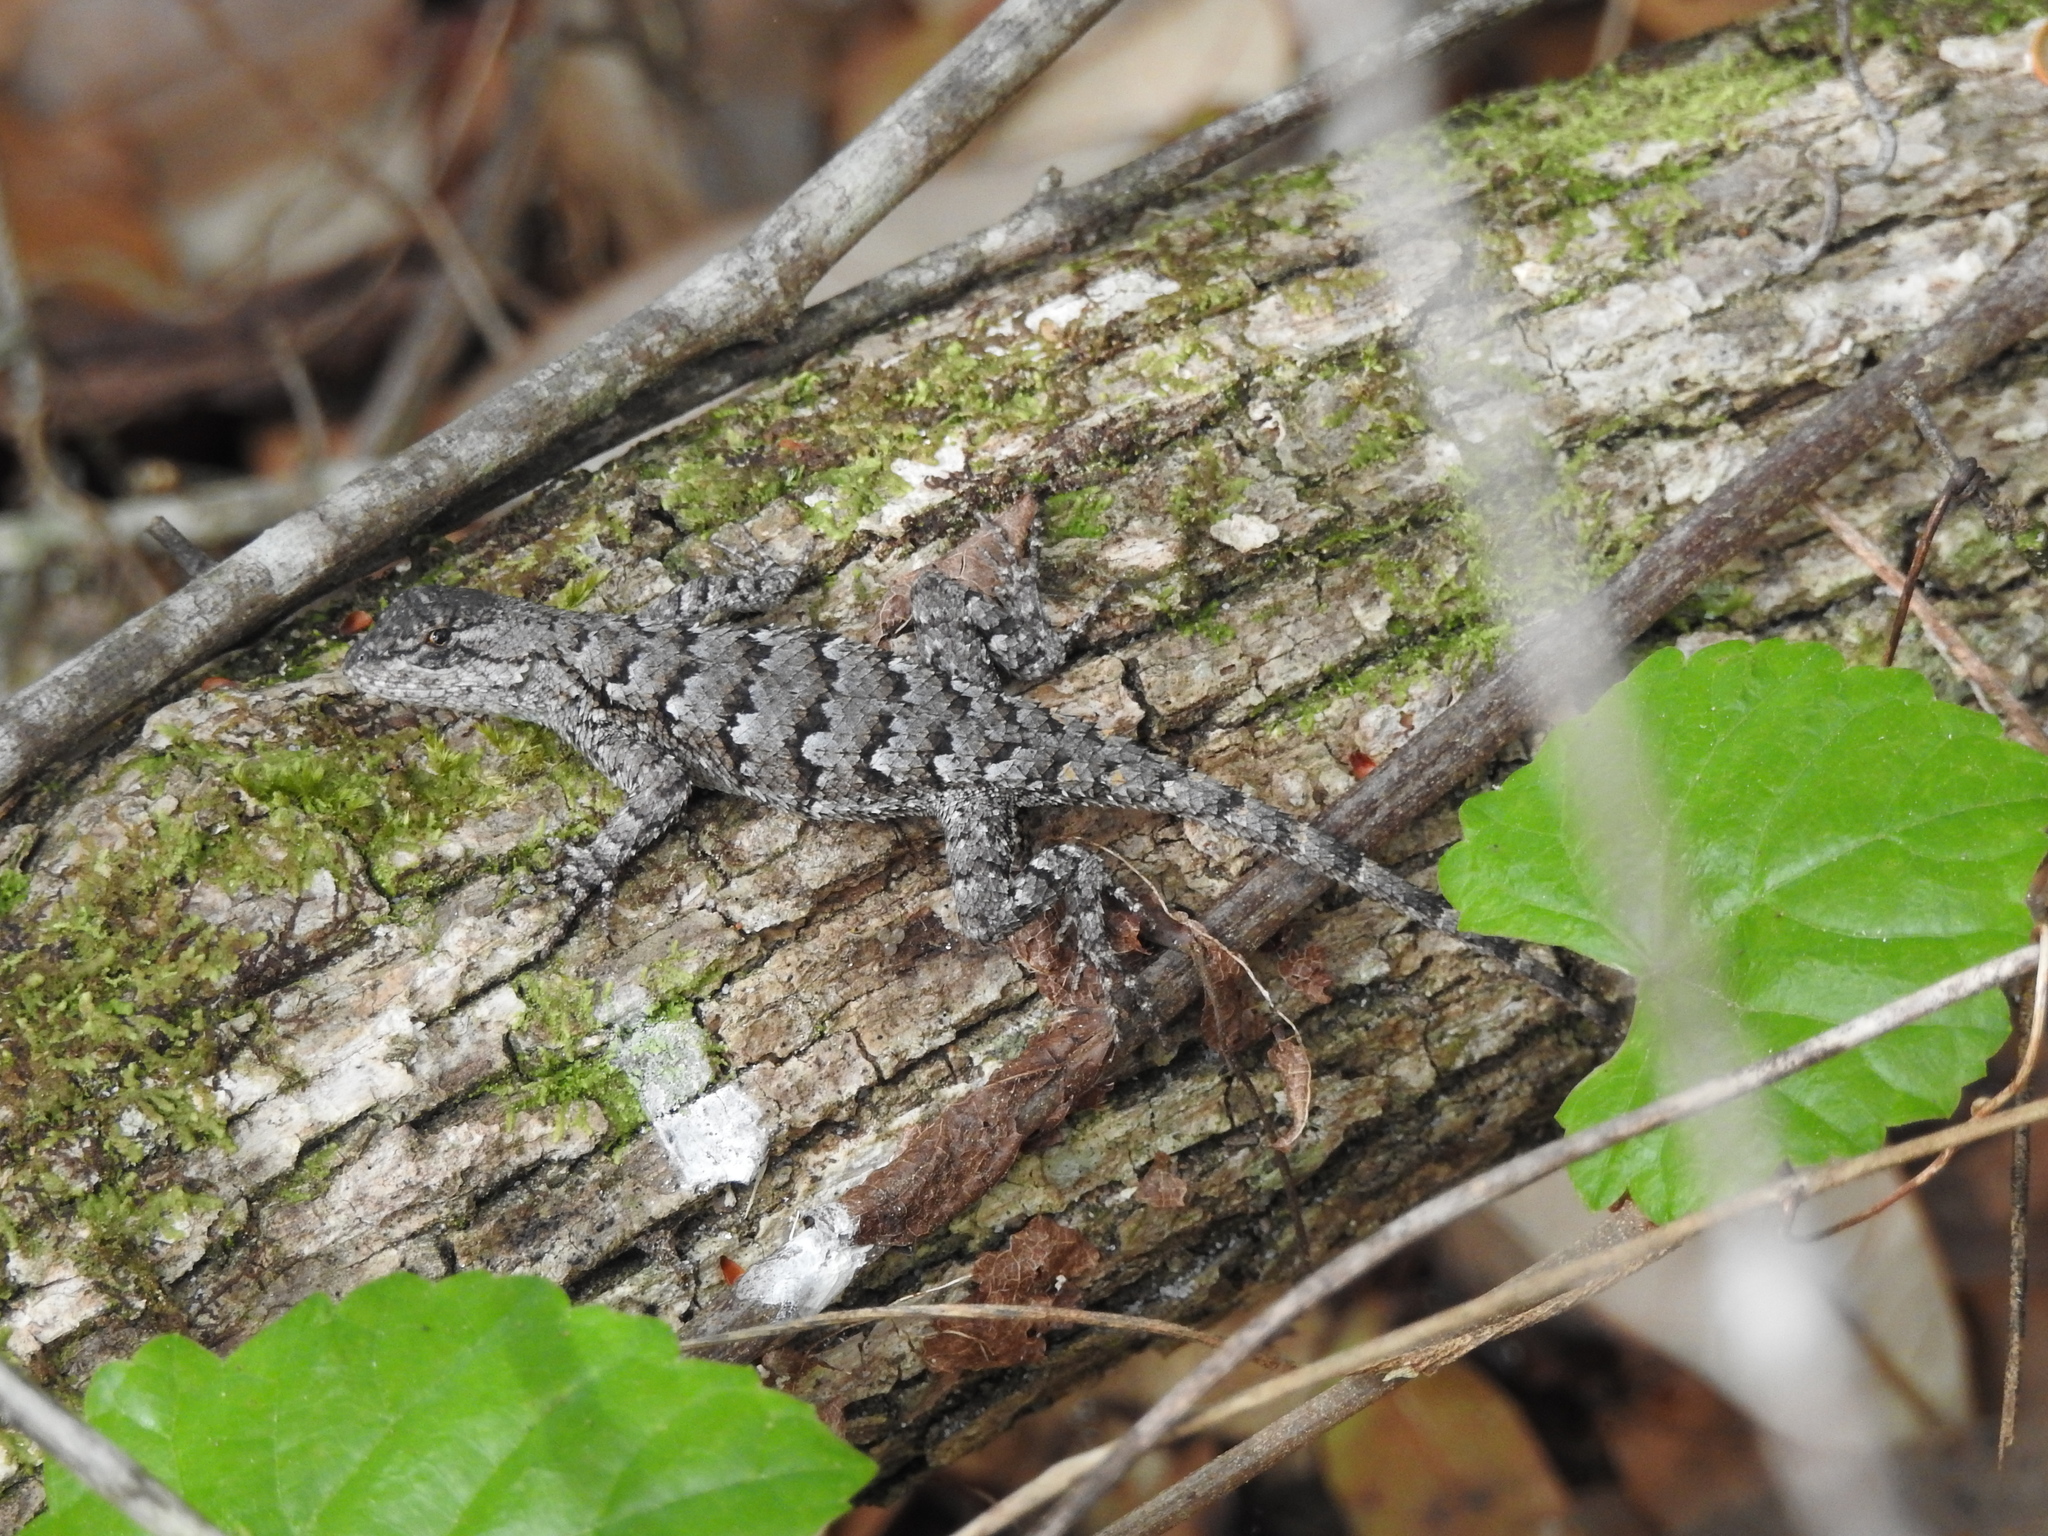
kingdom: Animalia
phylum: Chordata
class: Squamata
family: Phrynosomatidae
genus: Sceloporus
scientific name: Sceloporus undulatus
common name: Eastern fence lizard
